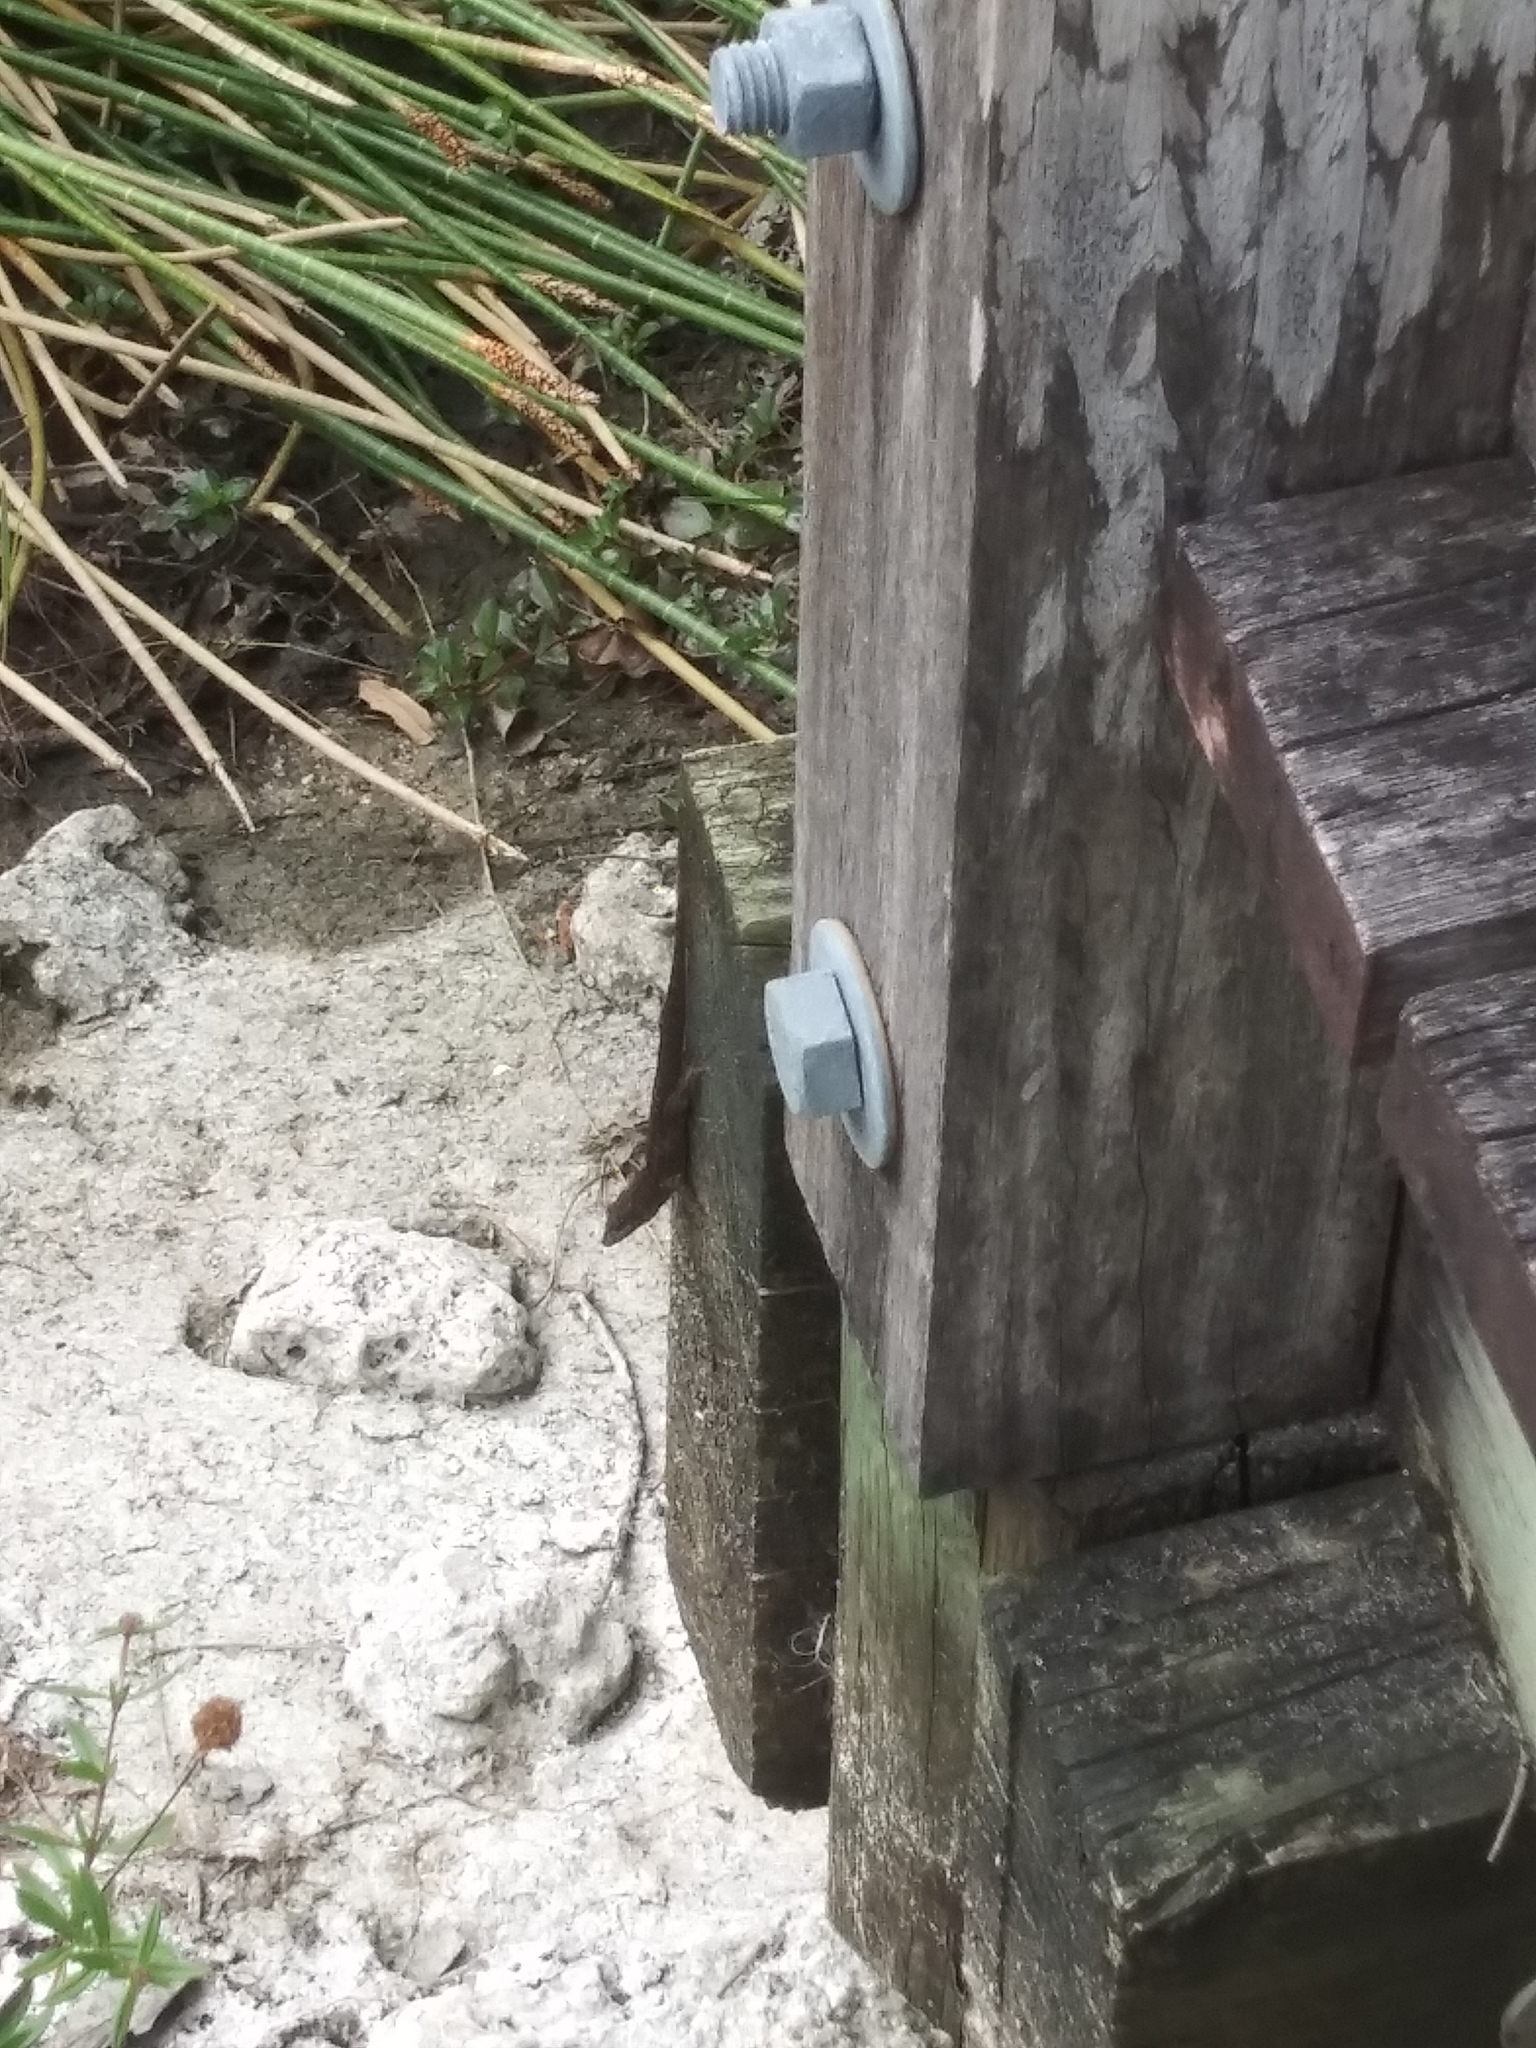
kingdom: Animalia
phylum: Chordata
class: Squamata
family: Dactyloidae
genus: Anolis
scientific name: Anolis sagrei
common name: Brown anole
